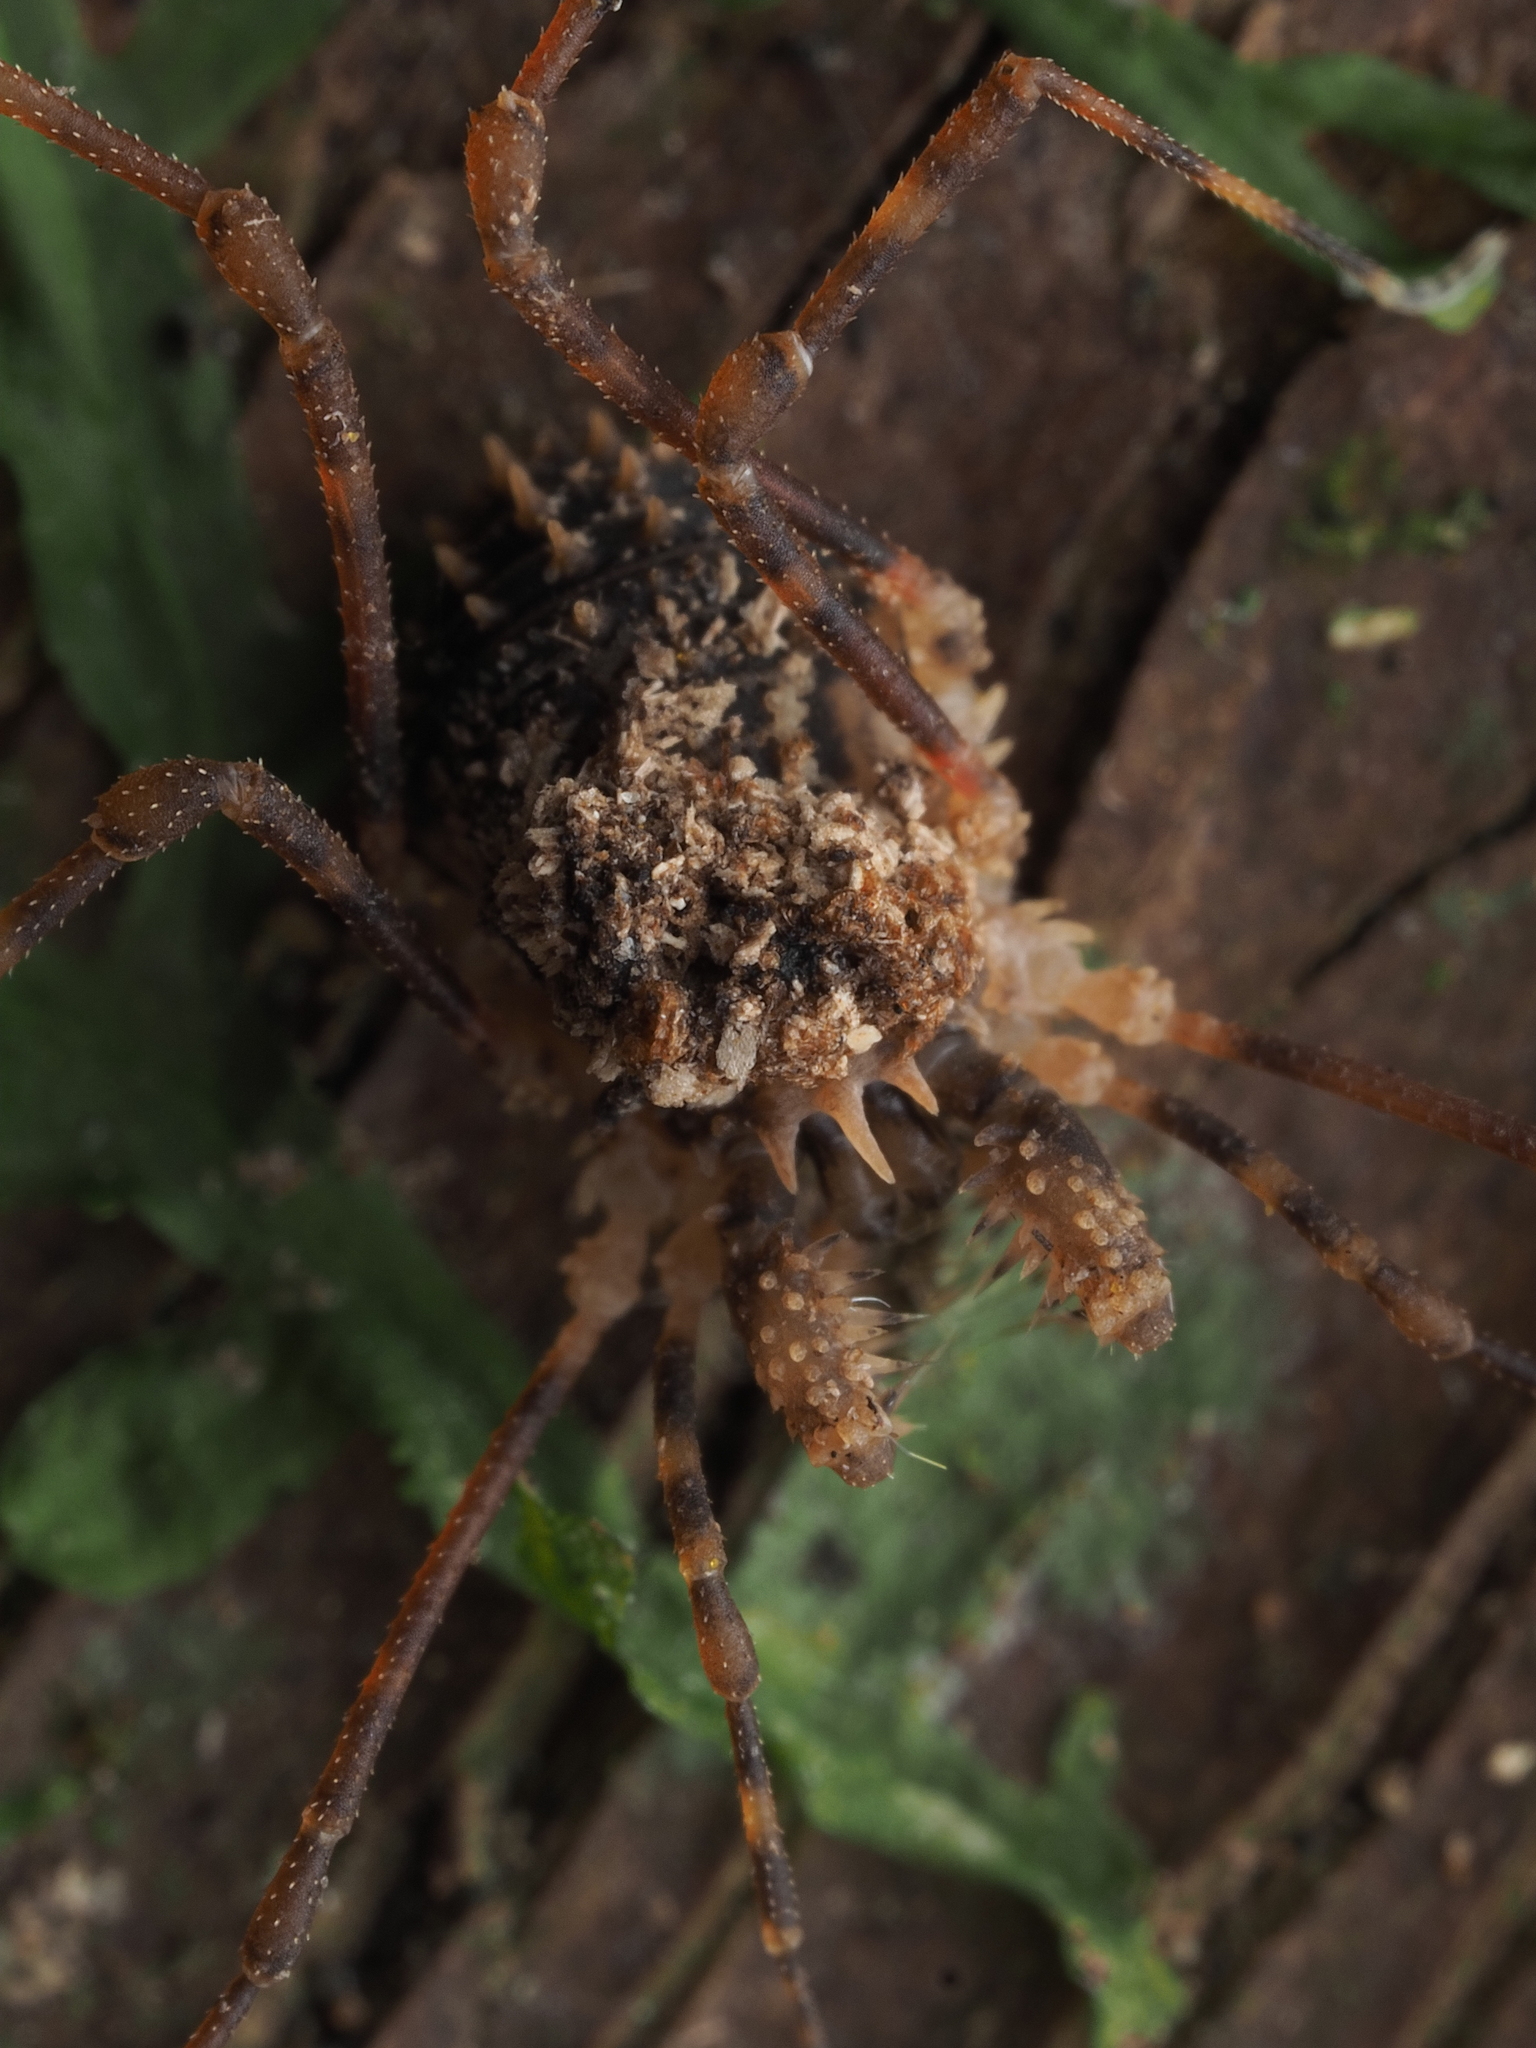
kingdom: Animalia
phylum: Arthropoda
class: Arachnida
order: Opiliones
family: Triaenonychidae
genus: Algidia
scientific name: Algidia chiltoni
